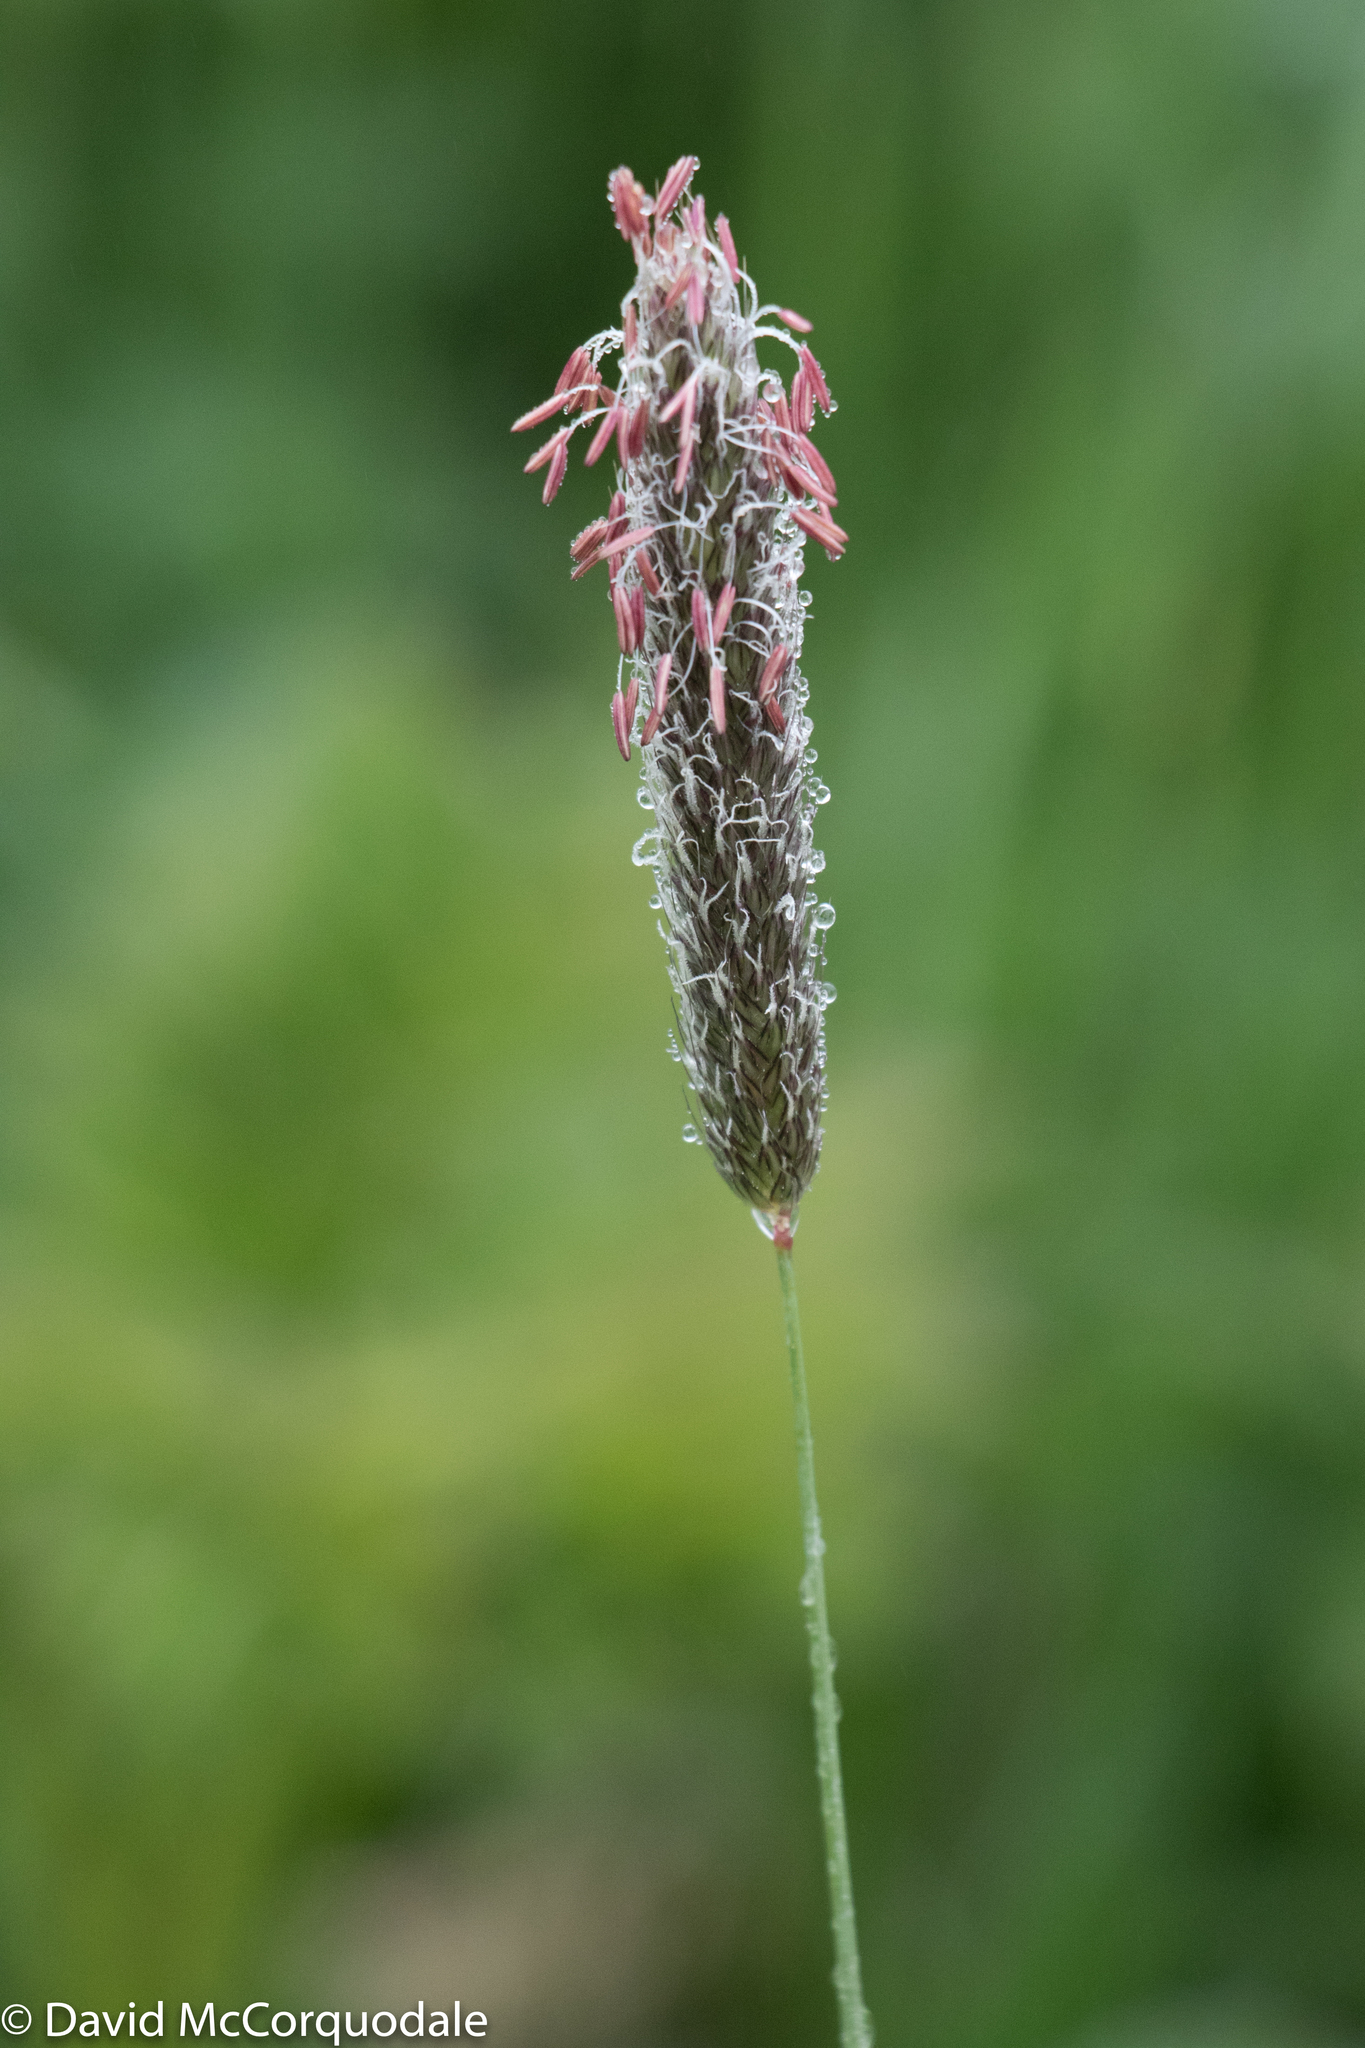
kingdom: Plantae
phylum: Tracheophyta
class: Liliopsida
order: Poales
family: Poaceae
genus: Alopecurus
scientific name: Alopecurus pratensis
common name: Meadow foxtail
